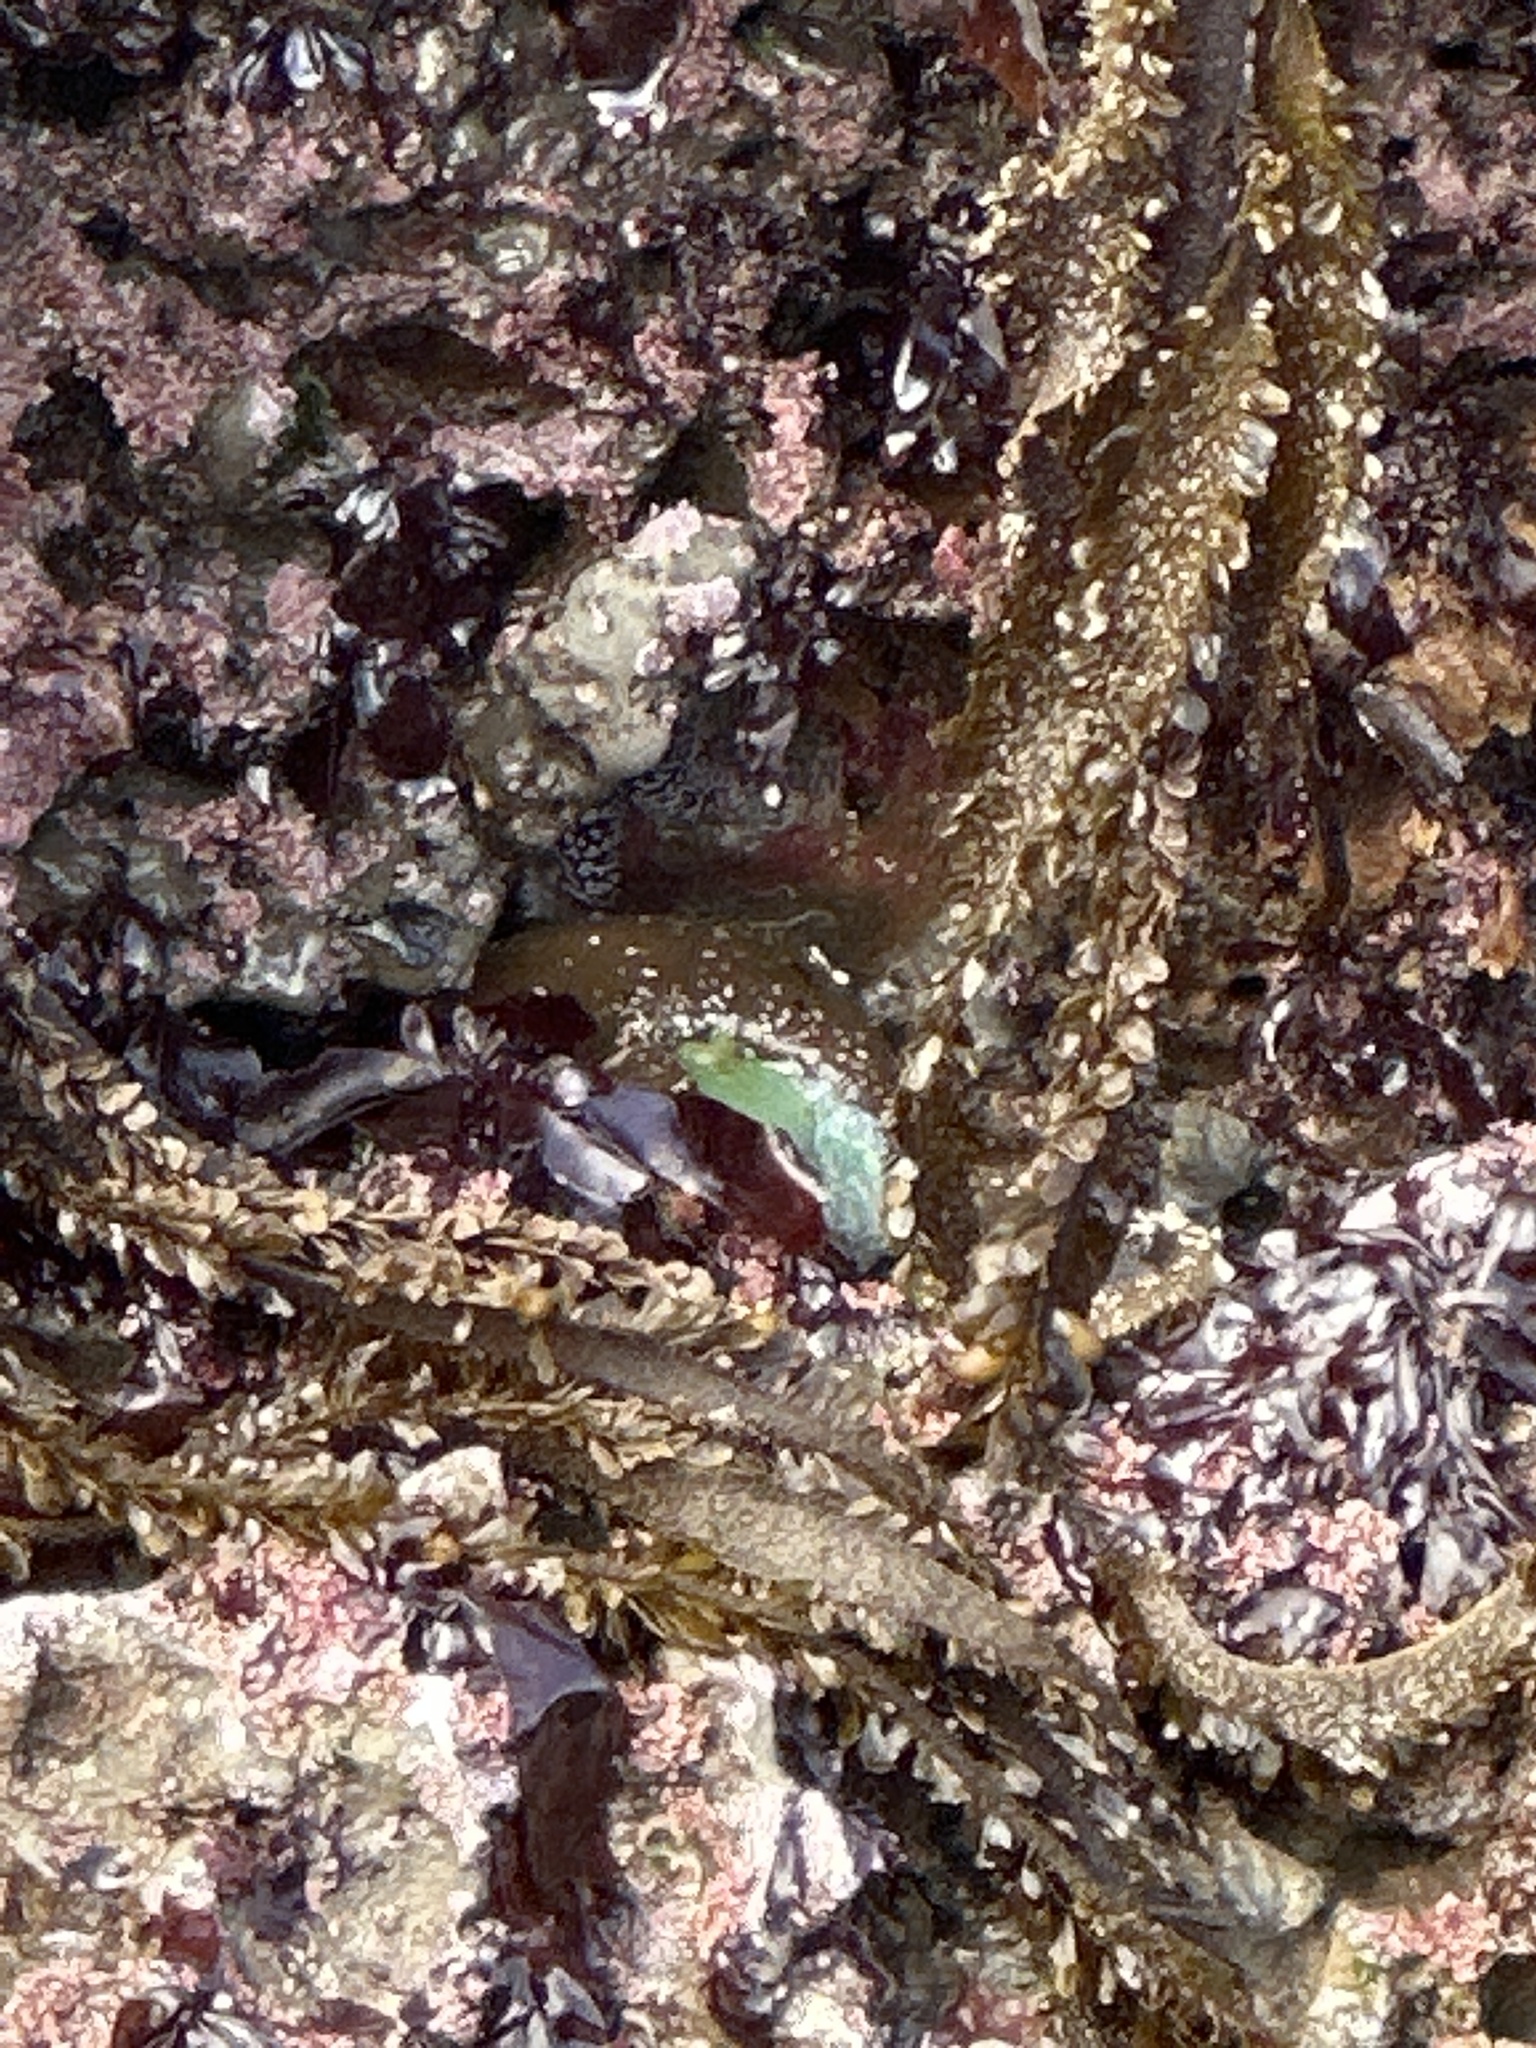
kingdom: Animalia
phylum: Cnidaria
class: Anthozoa
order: Actiniaria
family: Actiniidae
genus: Anthopleura
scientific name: Anthopleura xanthogrammica
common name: Giant green anemone
